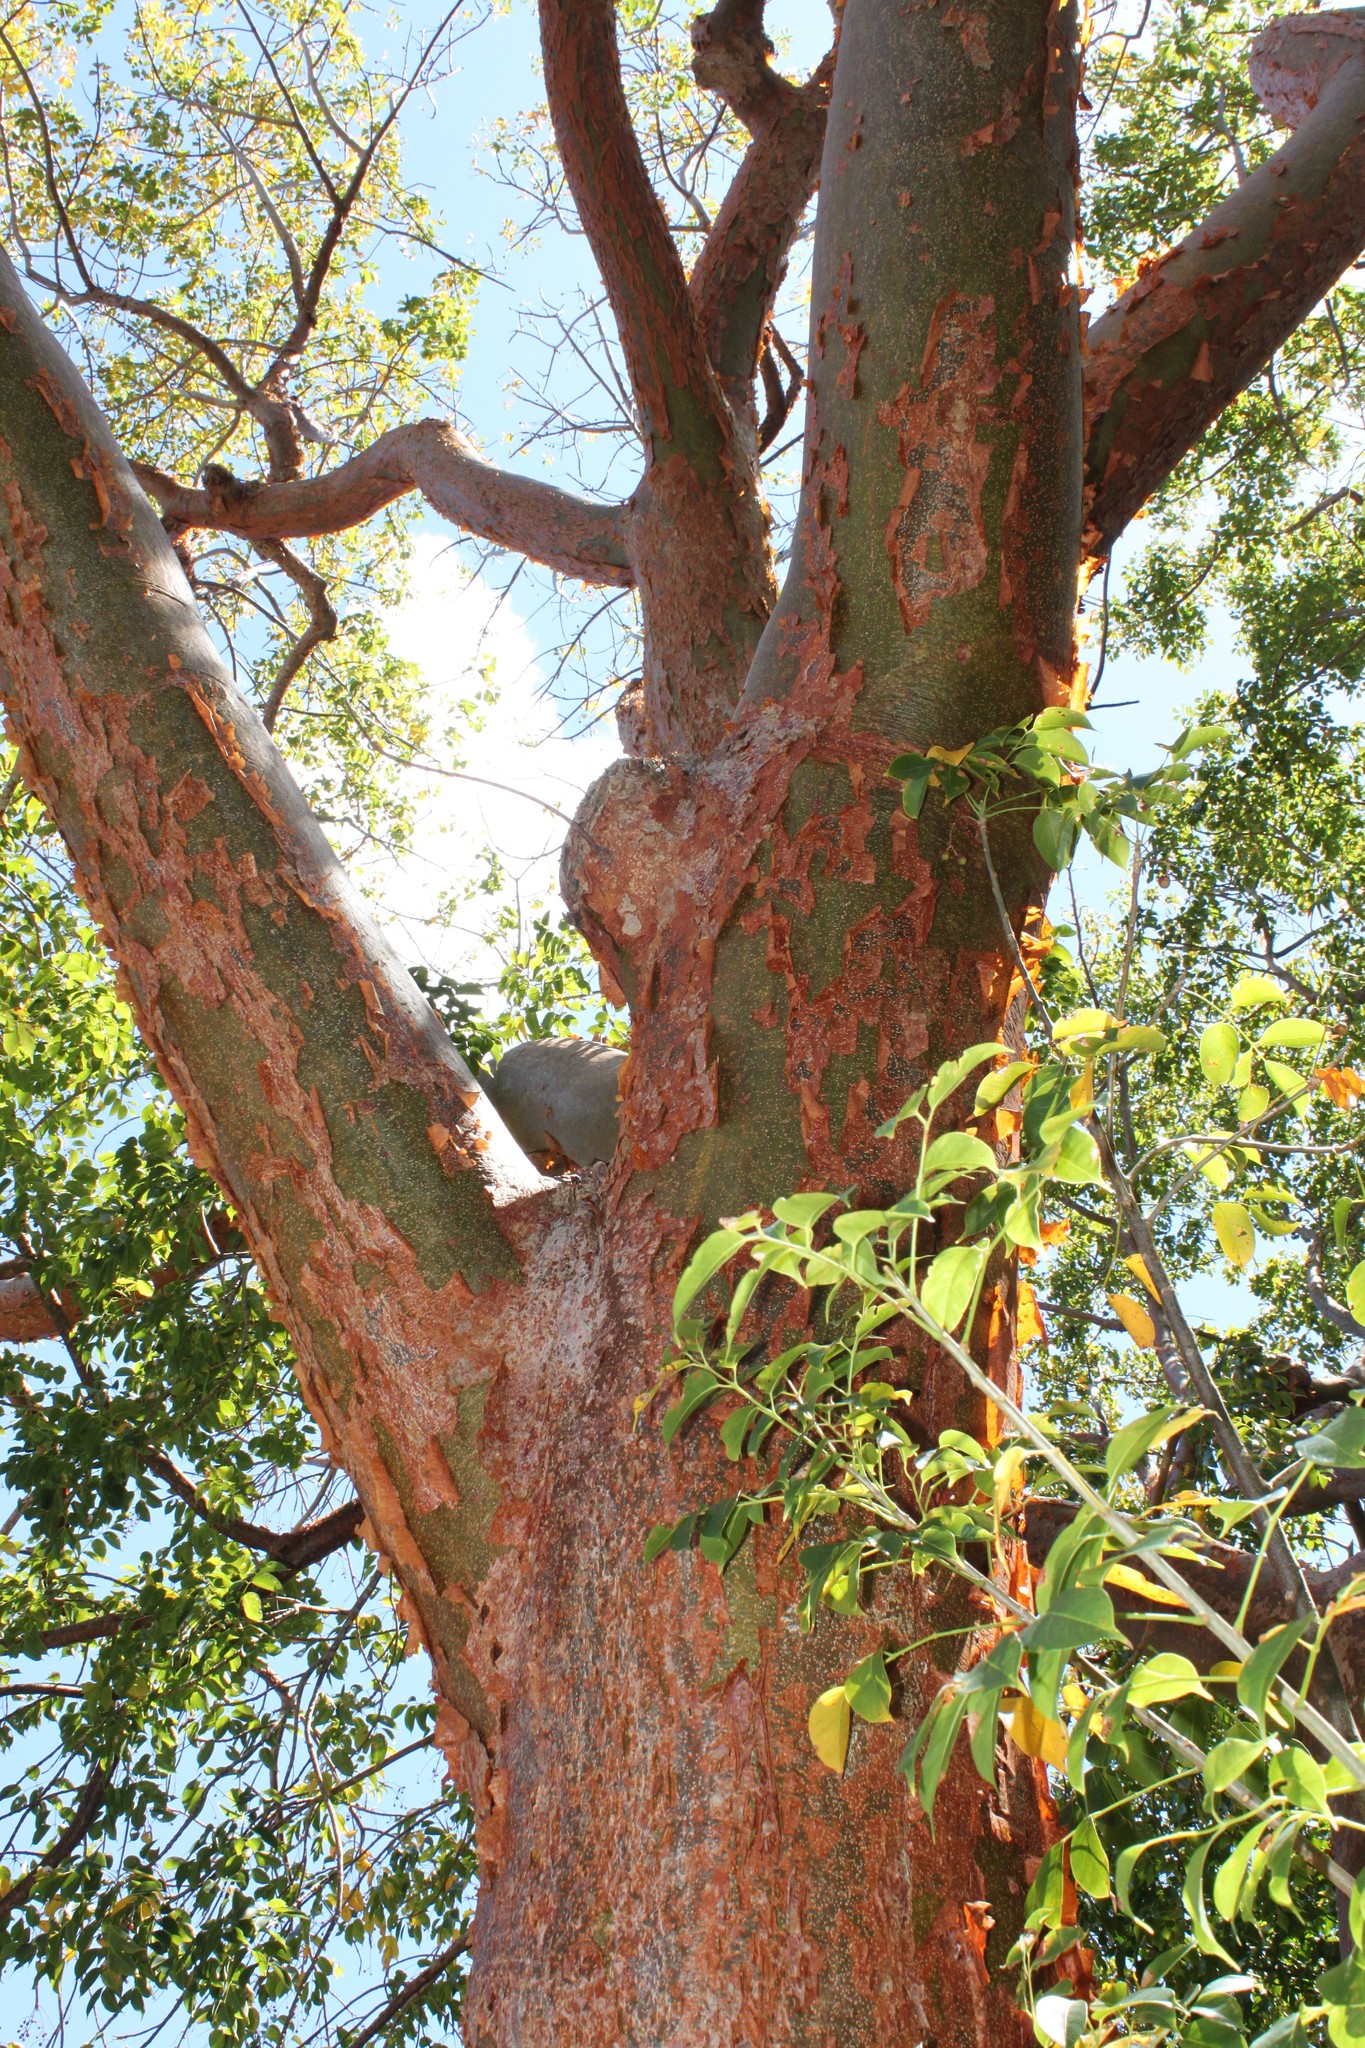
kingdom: Plantae
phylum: Tracheophyta
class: Magnoliopsida
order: Sapindales
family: Burseraceae
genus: Bursera
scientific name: Bursera simaruba
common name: Turpentine tree
